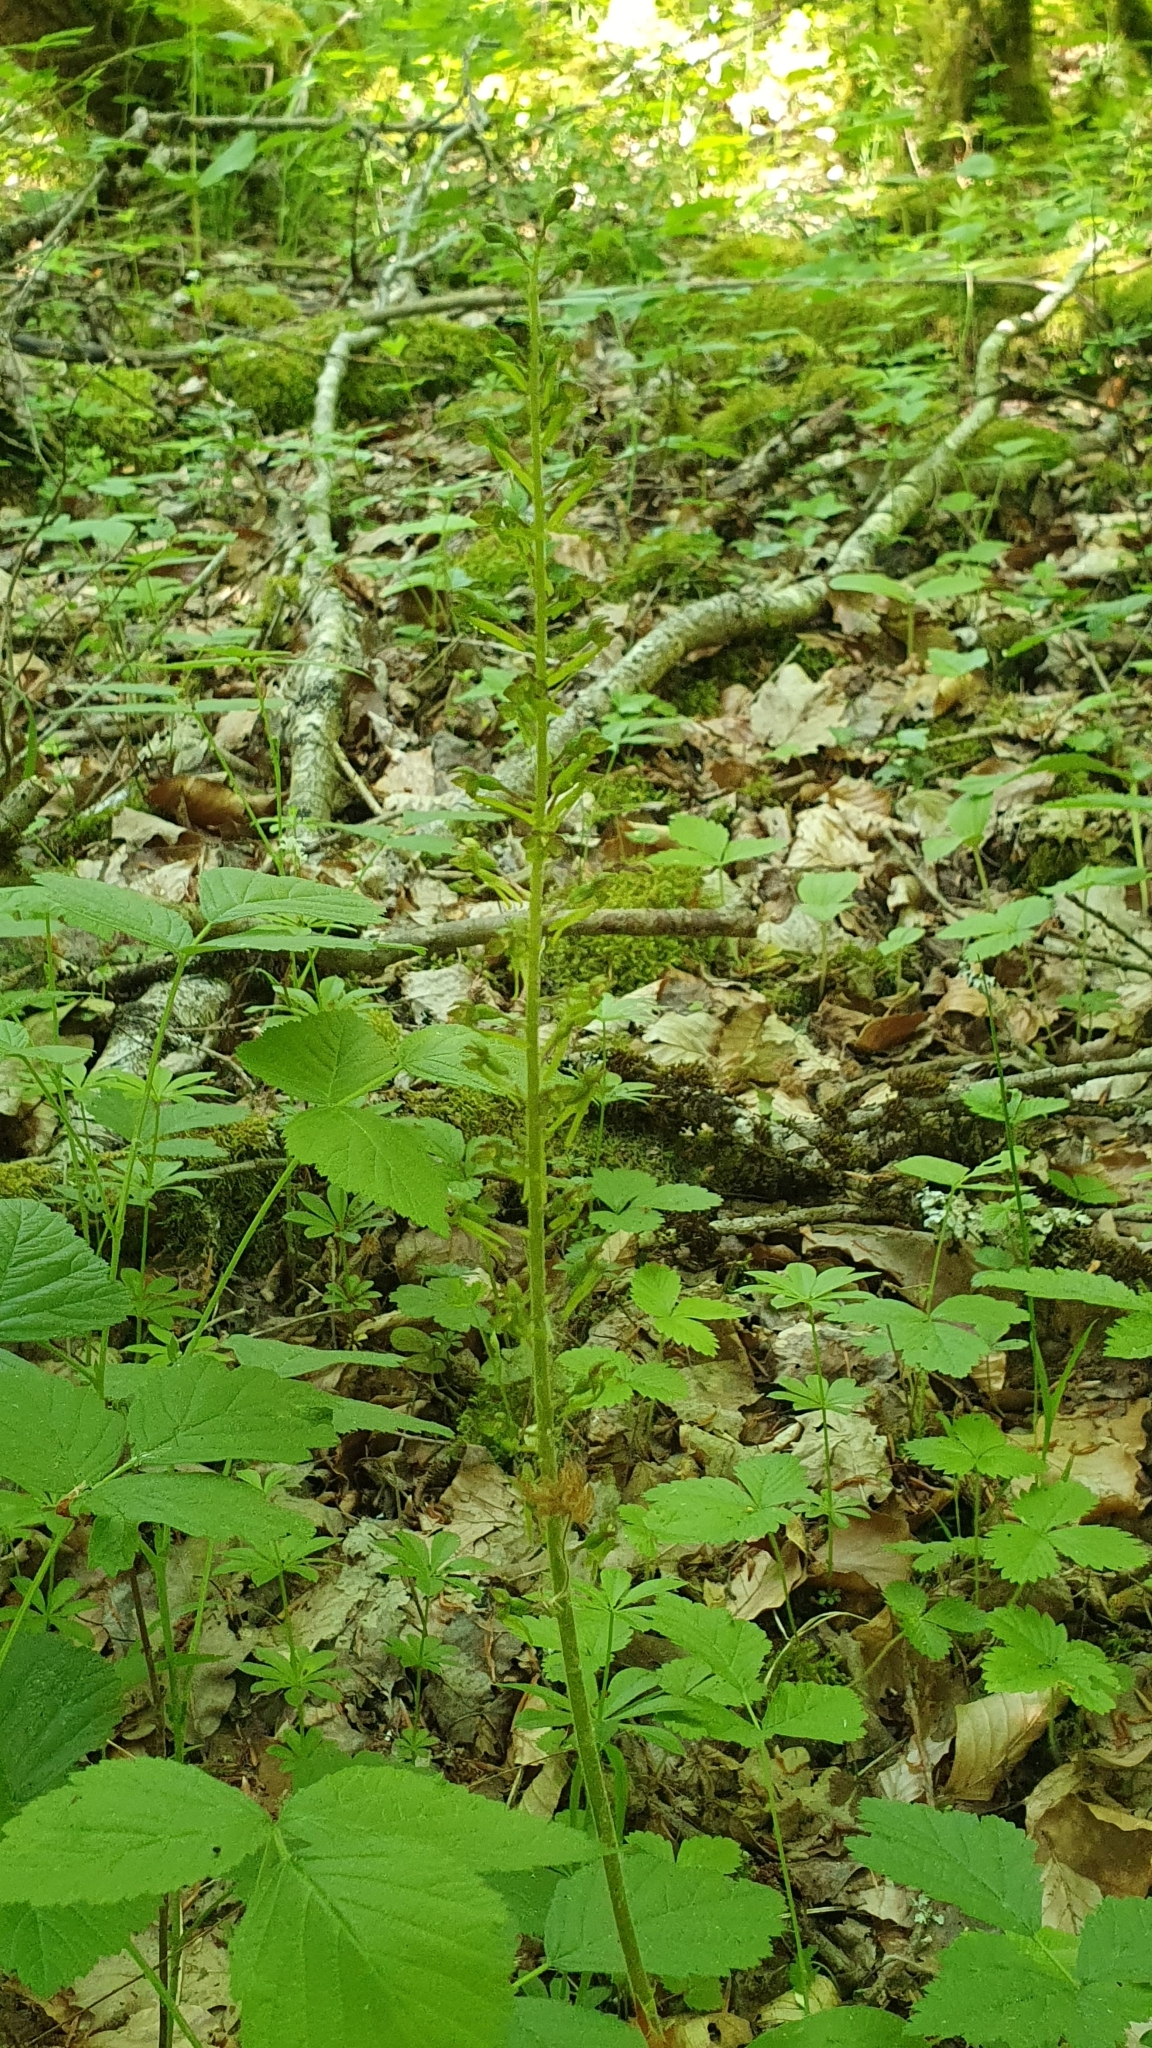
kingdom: Plantae
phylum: Tracheophyta
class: Liliopsida
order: Asparagales
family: Orchidaceae
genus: Neottia
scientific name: Neottia ovata
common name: Common twayblade
